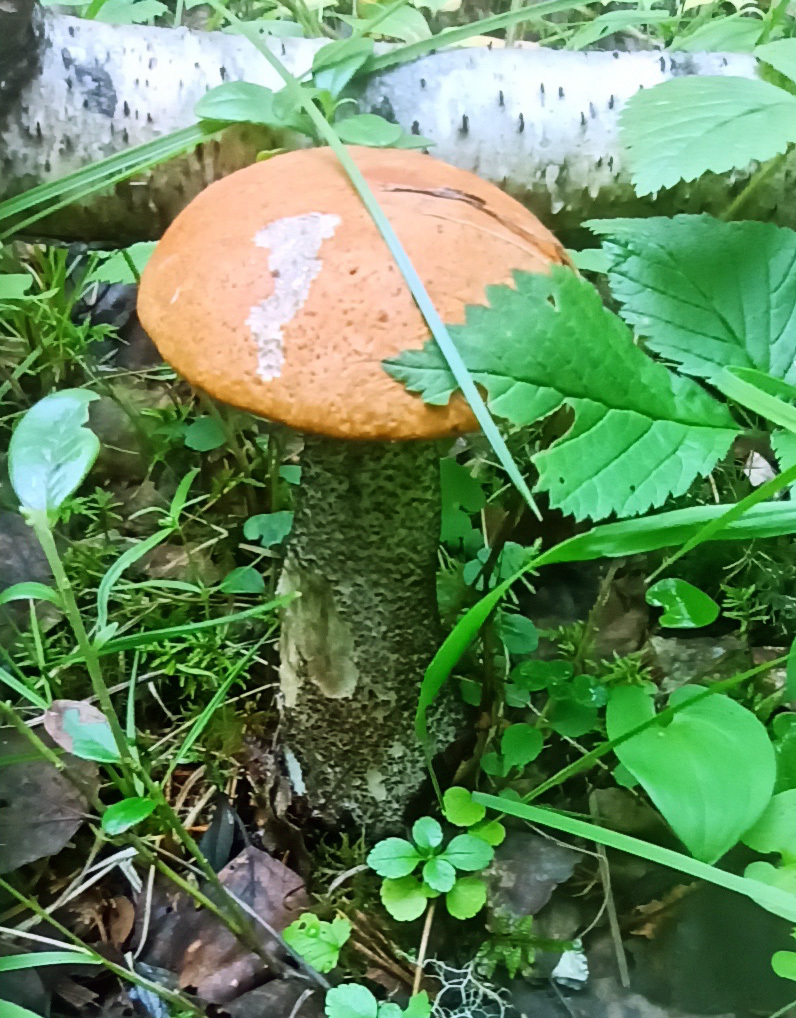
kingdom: Fungi
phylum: Basidiomycota
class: Agaricomycetes
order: Boletales
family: Boletaceae
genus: Leccinum
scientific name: Leccinum versipelle
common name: Orange birch bolete
